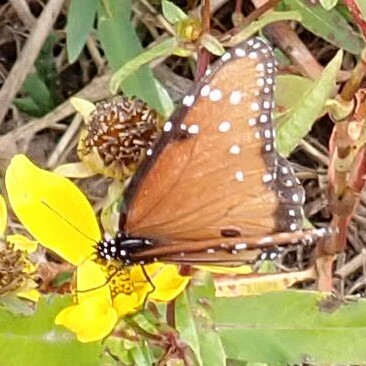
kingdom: Animalia
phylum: Arthropoda
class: Insecta
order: Lepidoptera
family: Nymphalidae
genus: Danaus
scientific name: Danaus gilippus
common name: Queen
